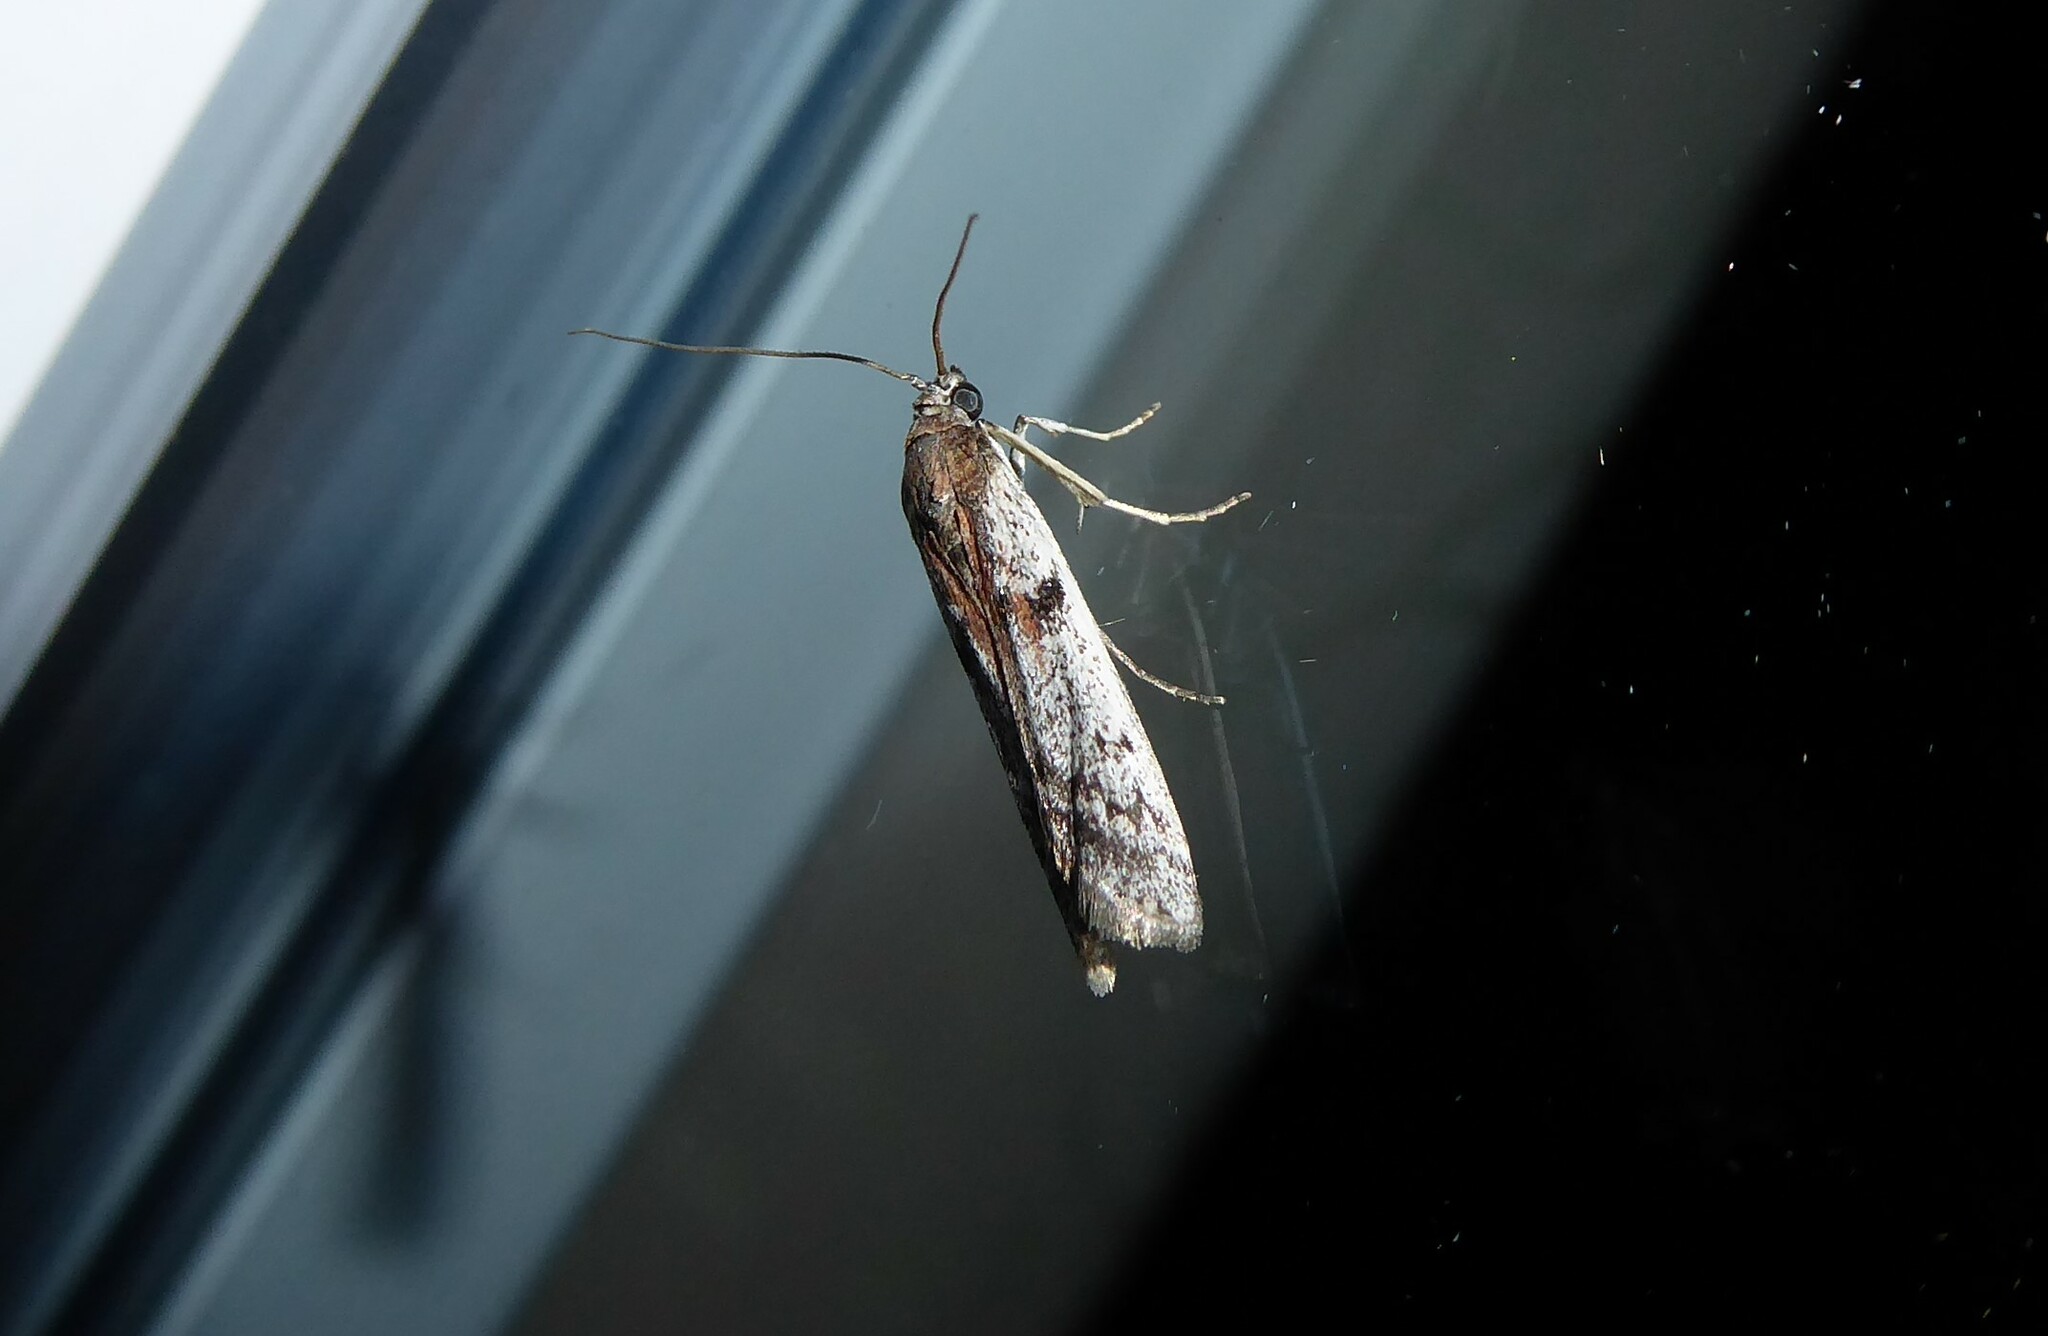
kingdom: Animalia
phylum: Arthropoda
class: Insecta
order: Lepidoptera
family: Pyralidae
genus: Patagoniodes
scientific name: Patagoniodes farinaria
